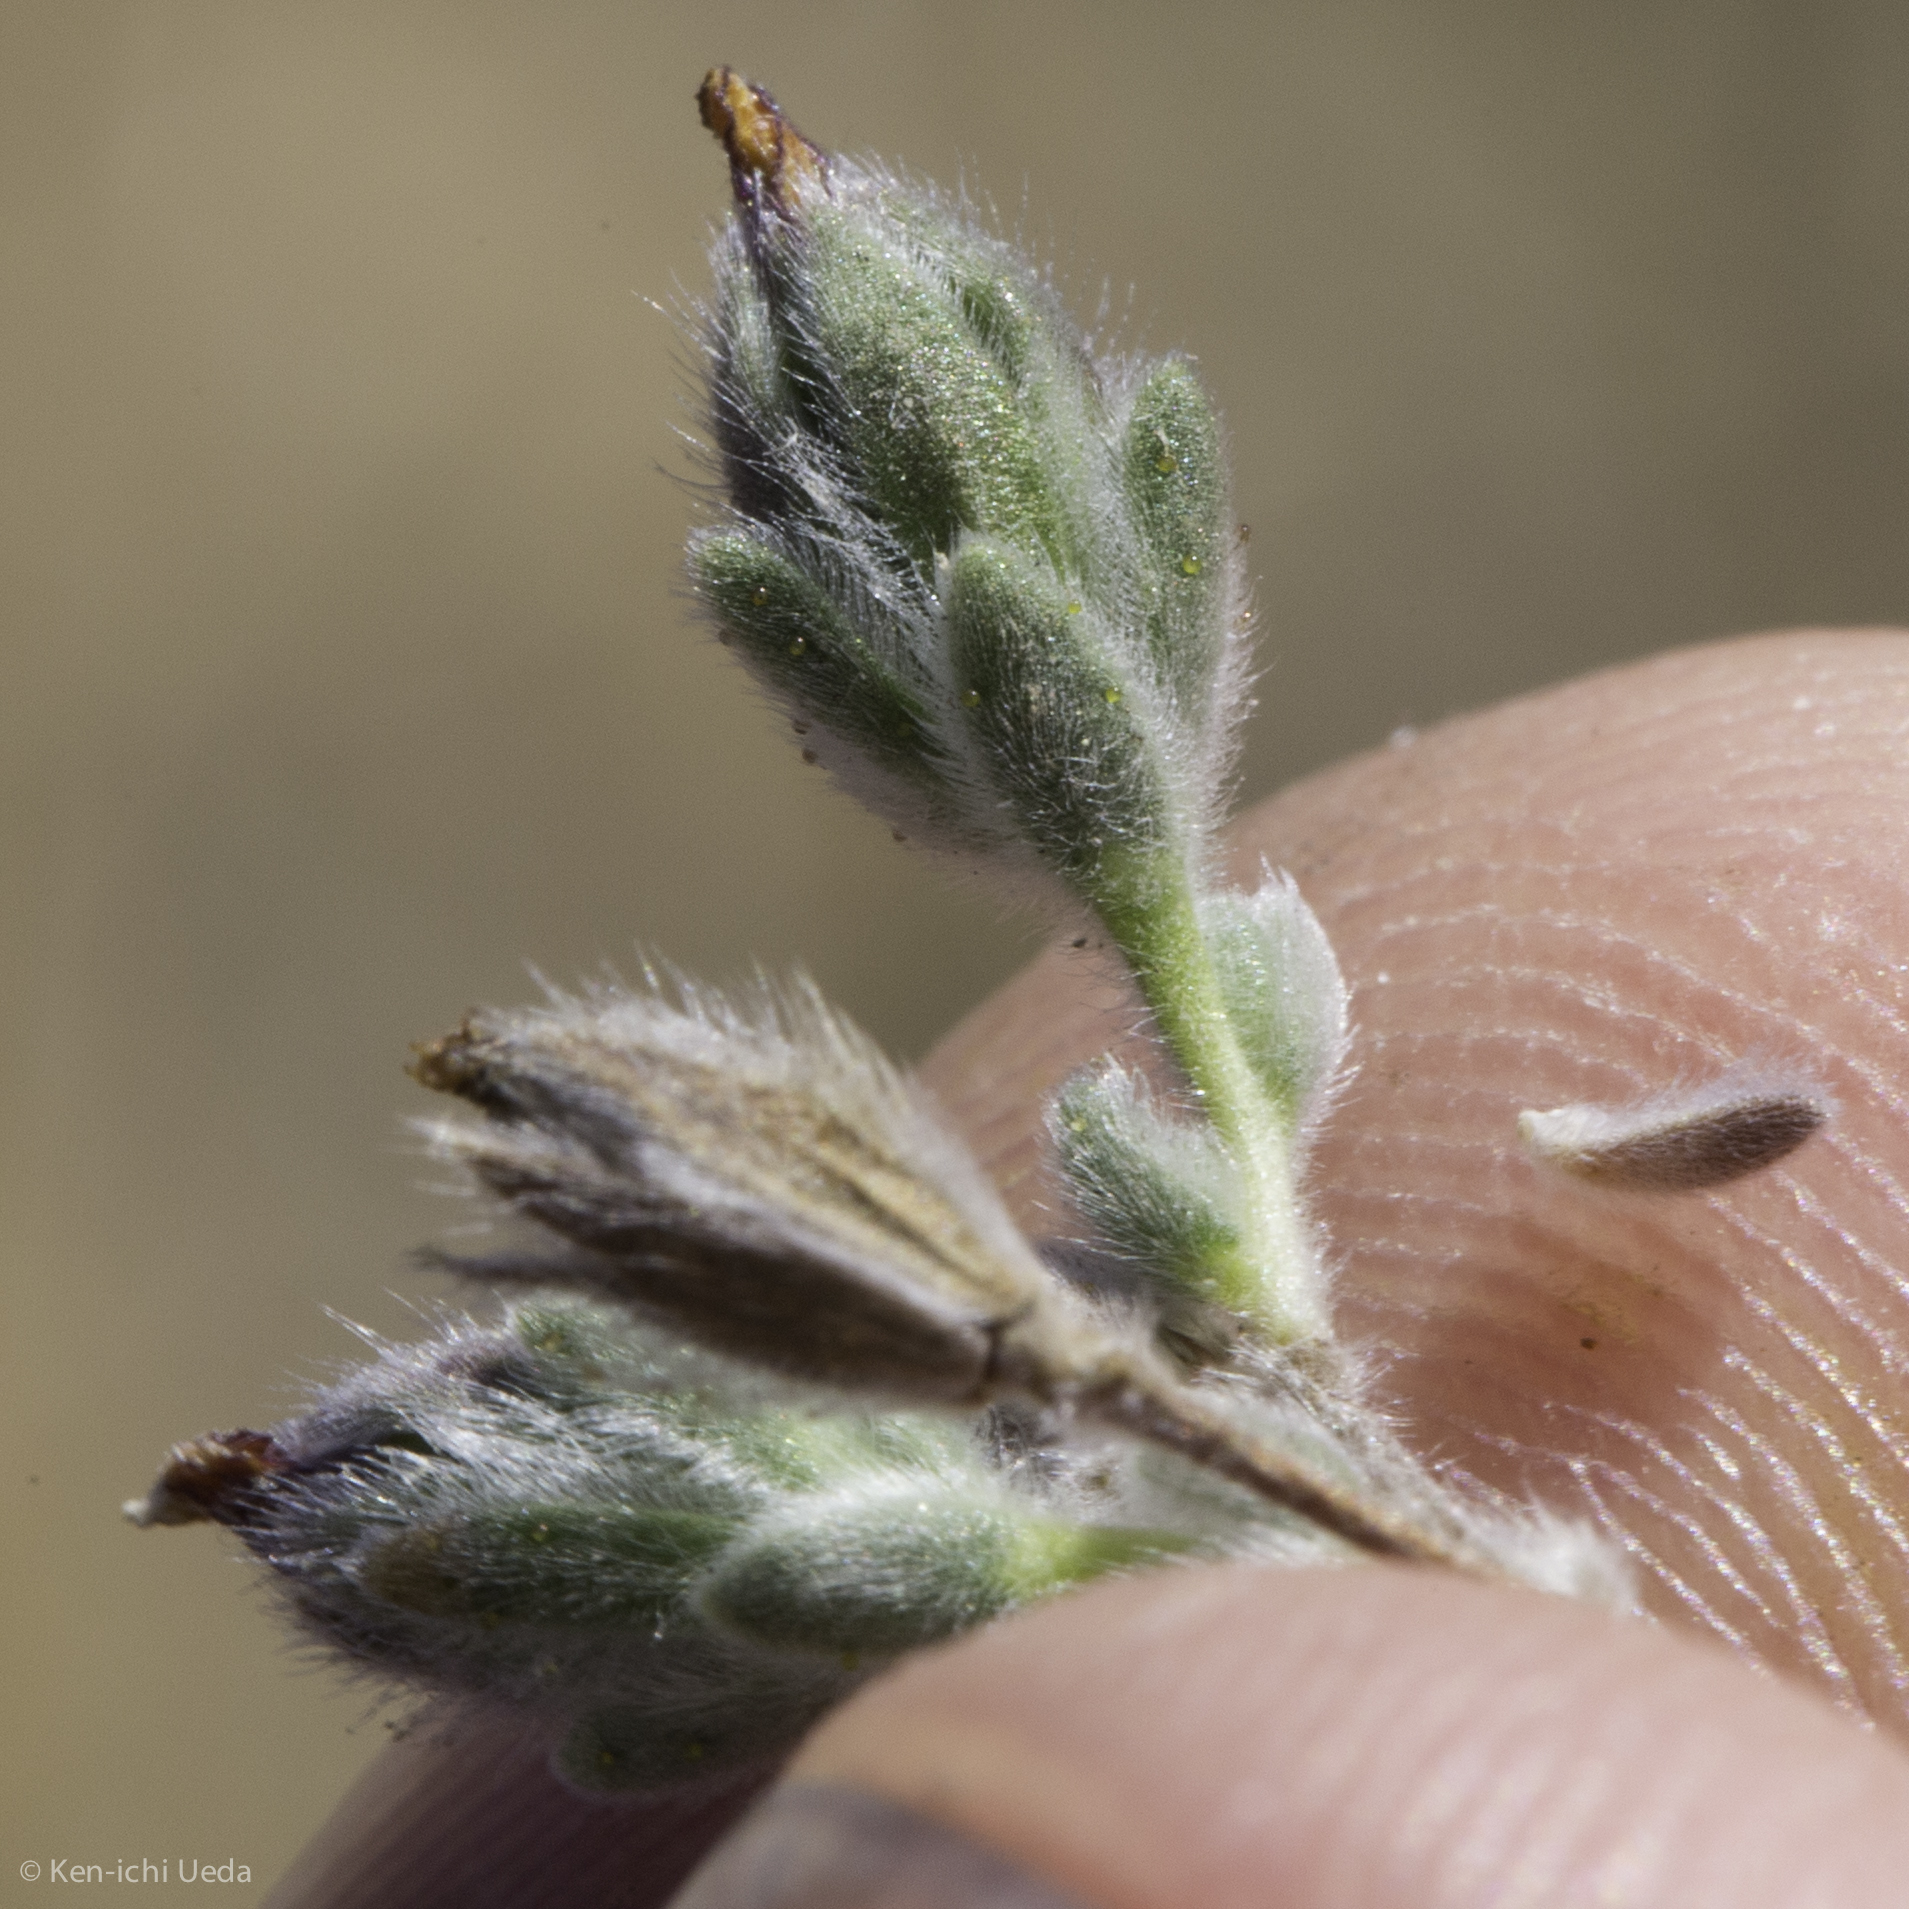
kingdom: Plantae
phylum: Tracheophyta
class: Magnoliopsida
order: Asterales
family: Asteraceae
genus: Lagophylla
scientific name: Lagophylla ramosissima
